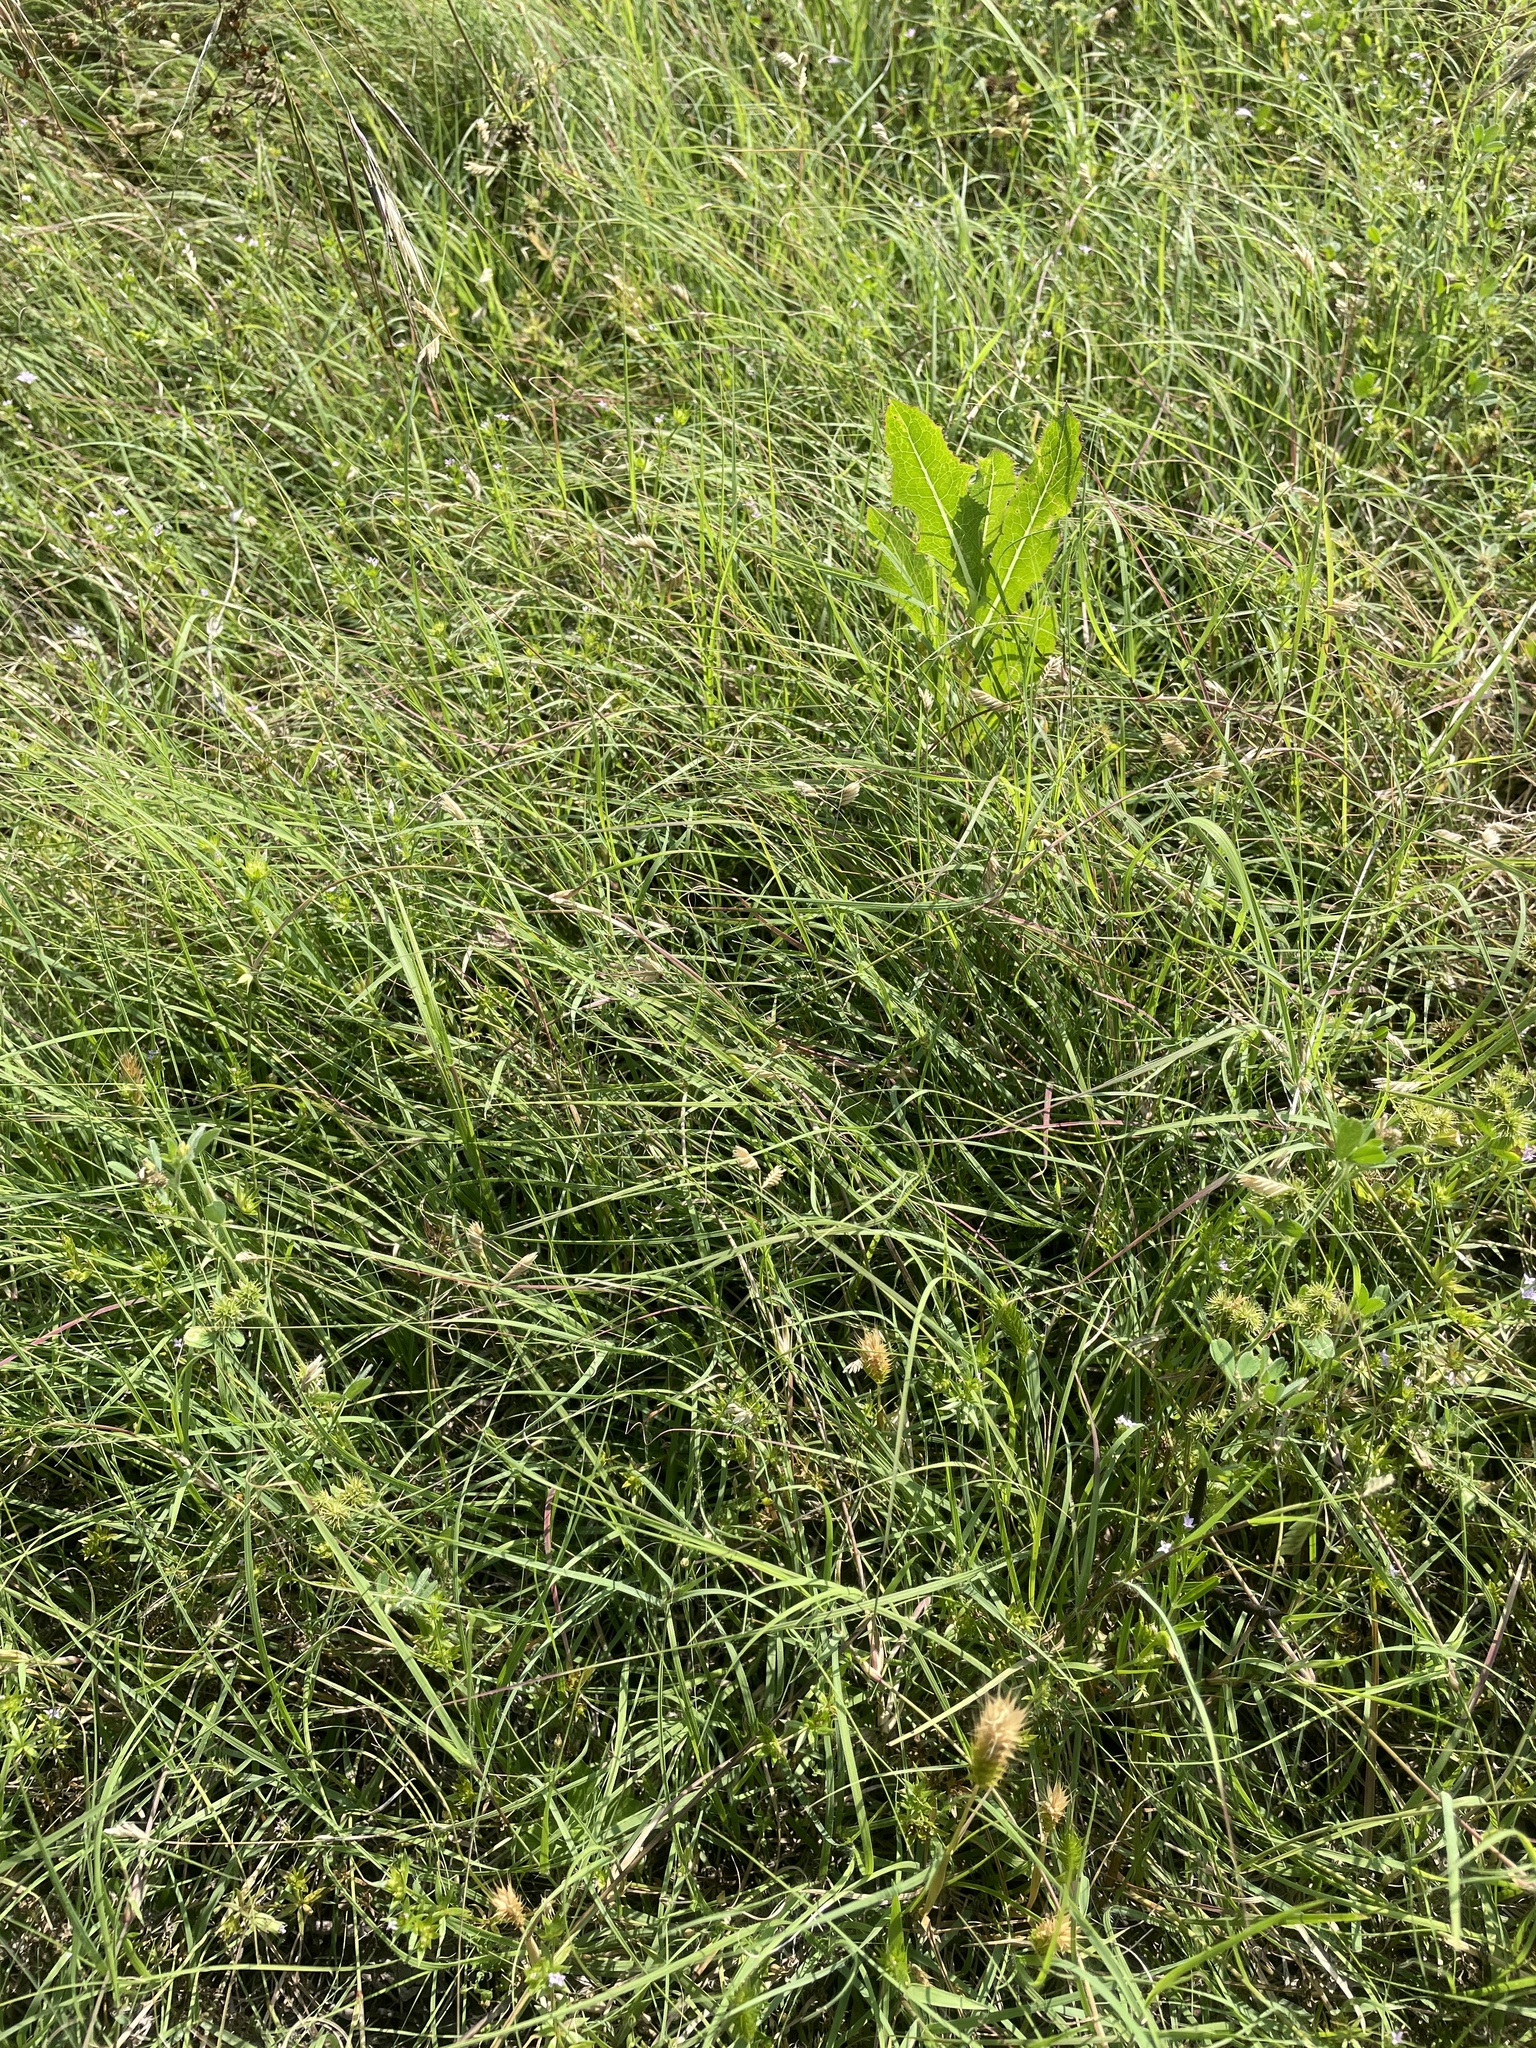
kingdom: Plantae
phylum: Tracheophyta
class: Liliopsida
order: Poales
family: Poaceae
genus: Bouteloua
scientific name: Bouteloua dactyloides
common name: Buffalo grass
